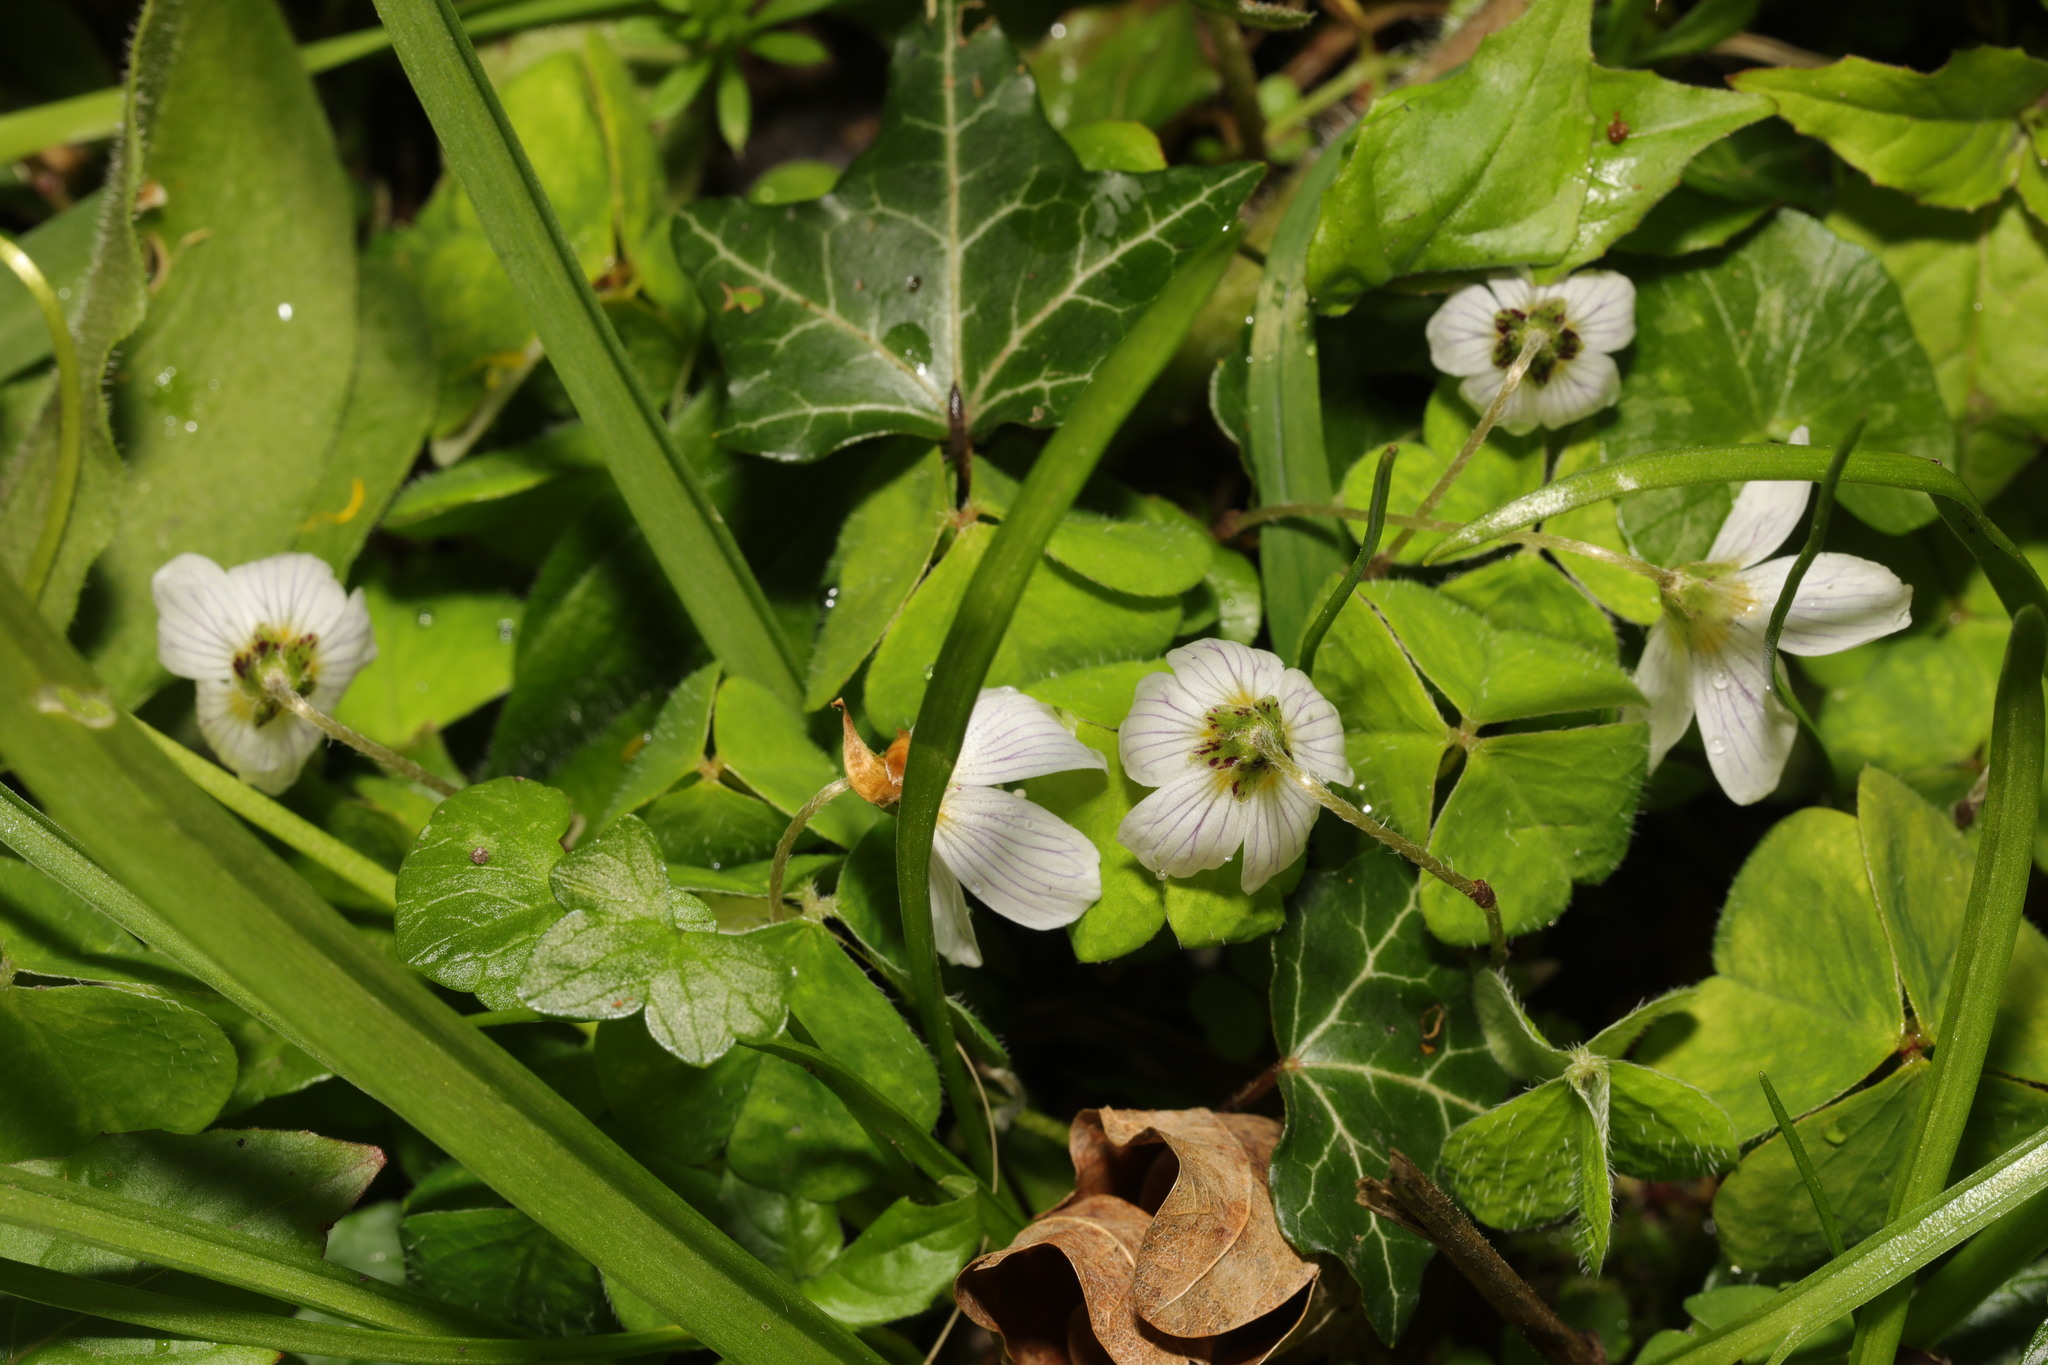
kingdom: Plantae
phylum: Tracheophyta
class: Magnoliopsida
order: Oxalidales
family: Oxalidaceae
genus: Oxalis
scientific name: Oxalis acetosella
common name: Wood-sorrel
